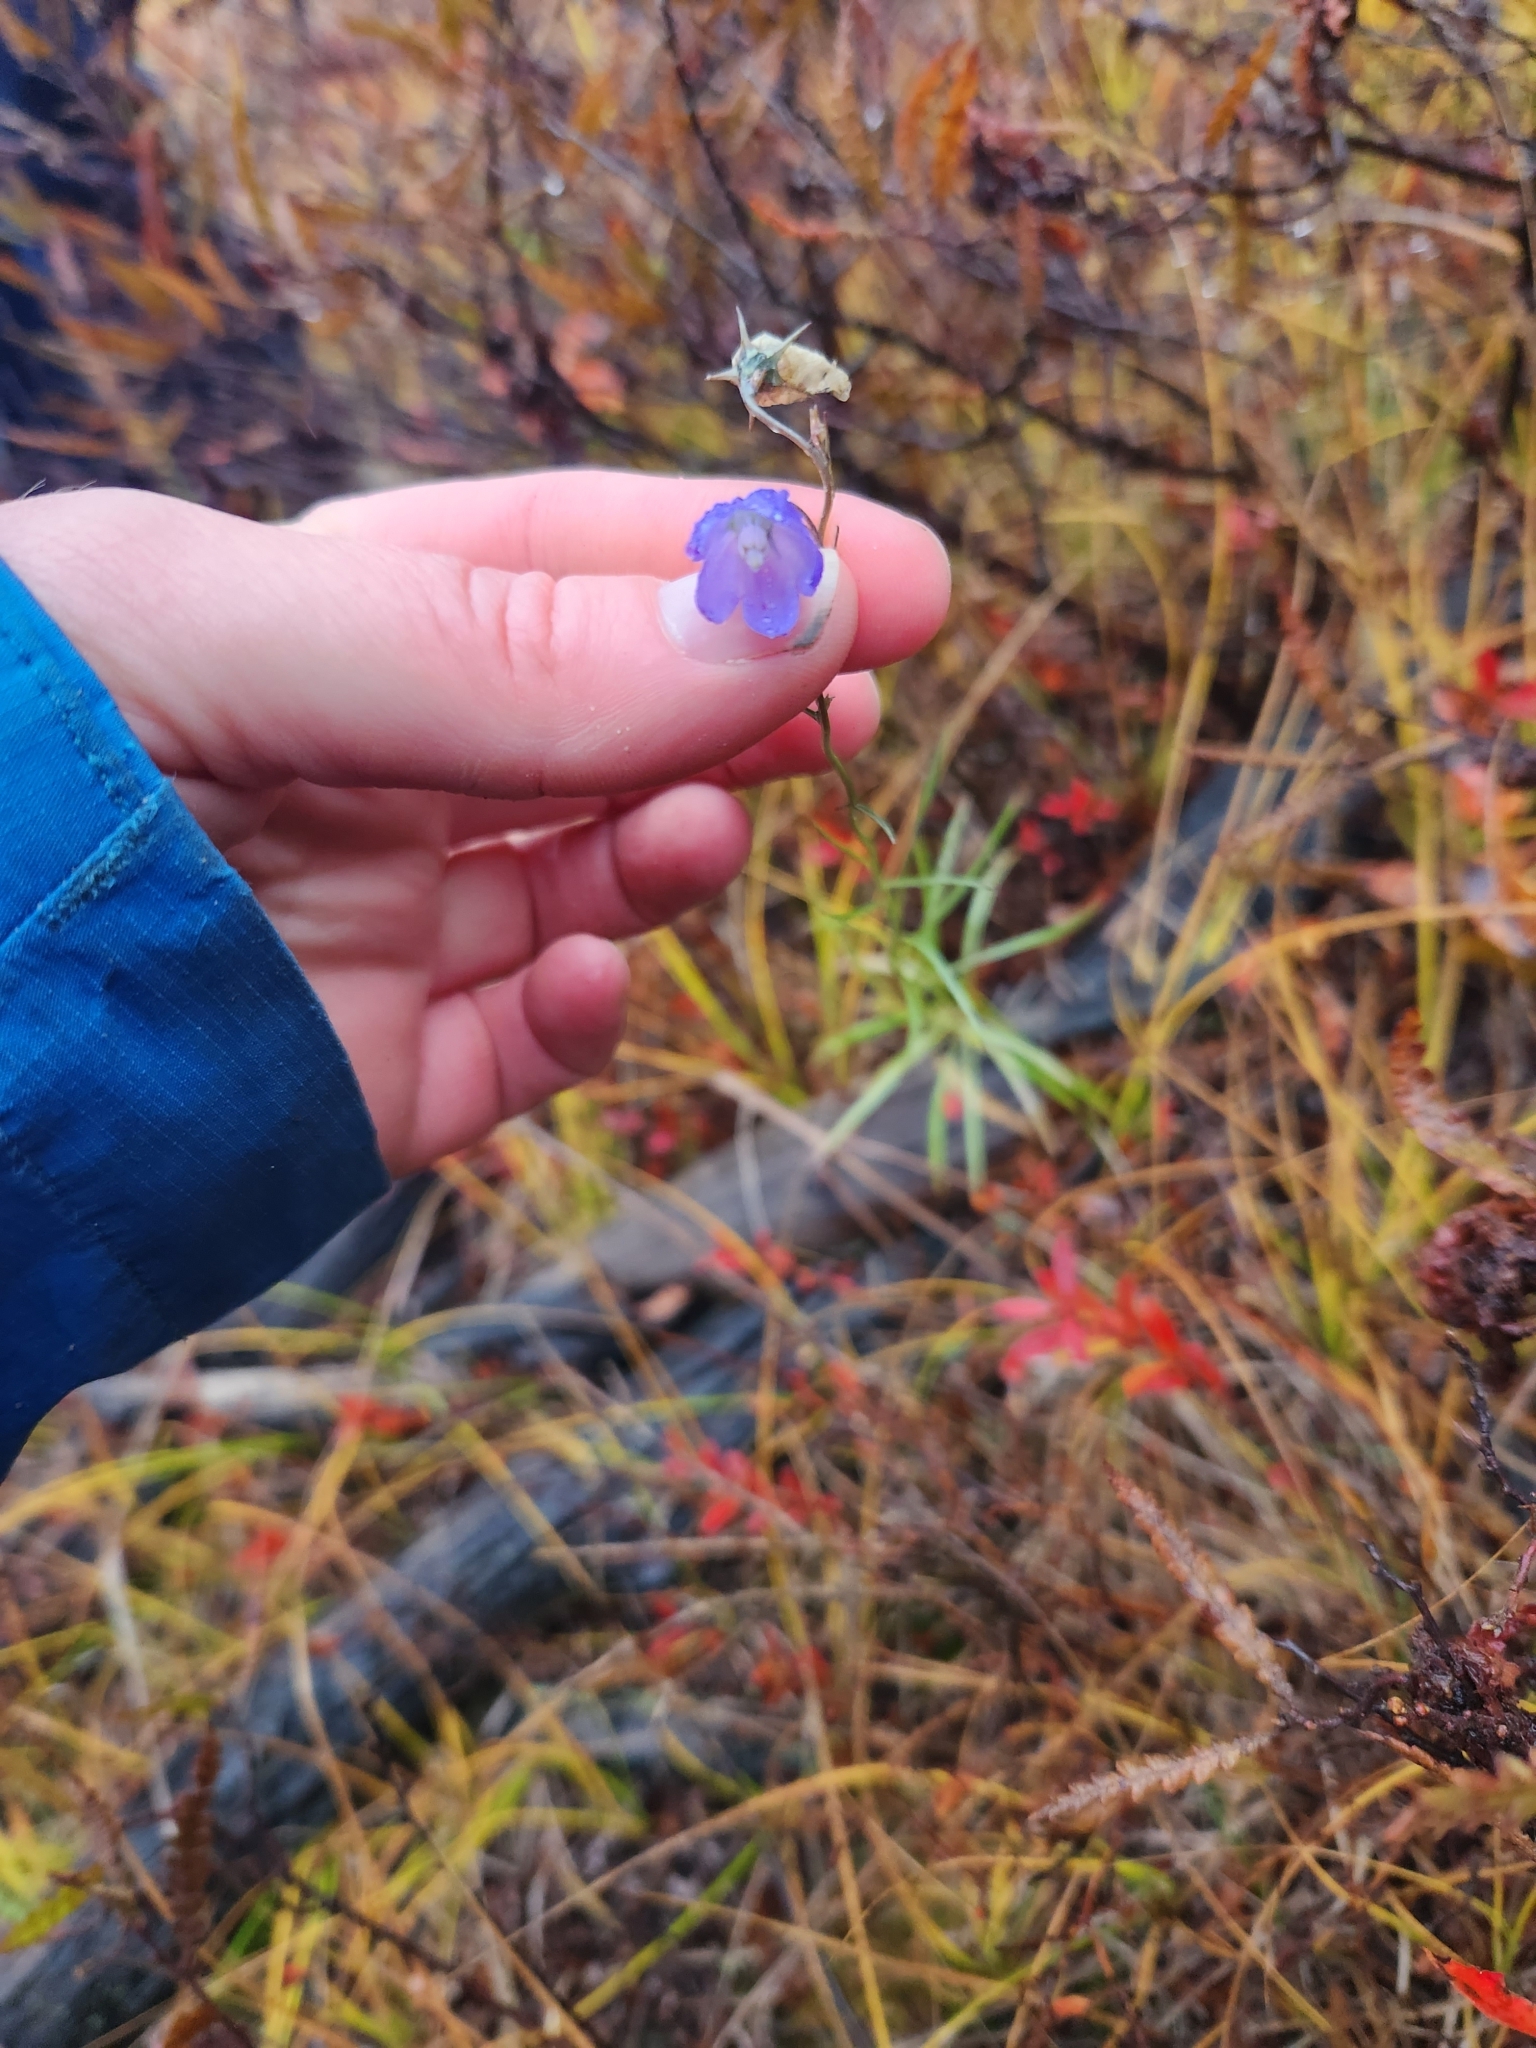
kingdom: Plantae
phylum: Tracheophyta
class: Magnoliopsida
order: Asterales
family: Campanulaceae
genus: Campanula
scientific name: Campanula intercedens
